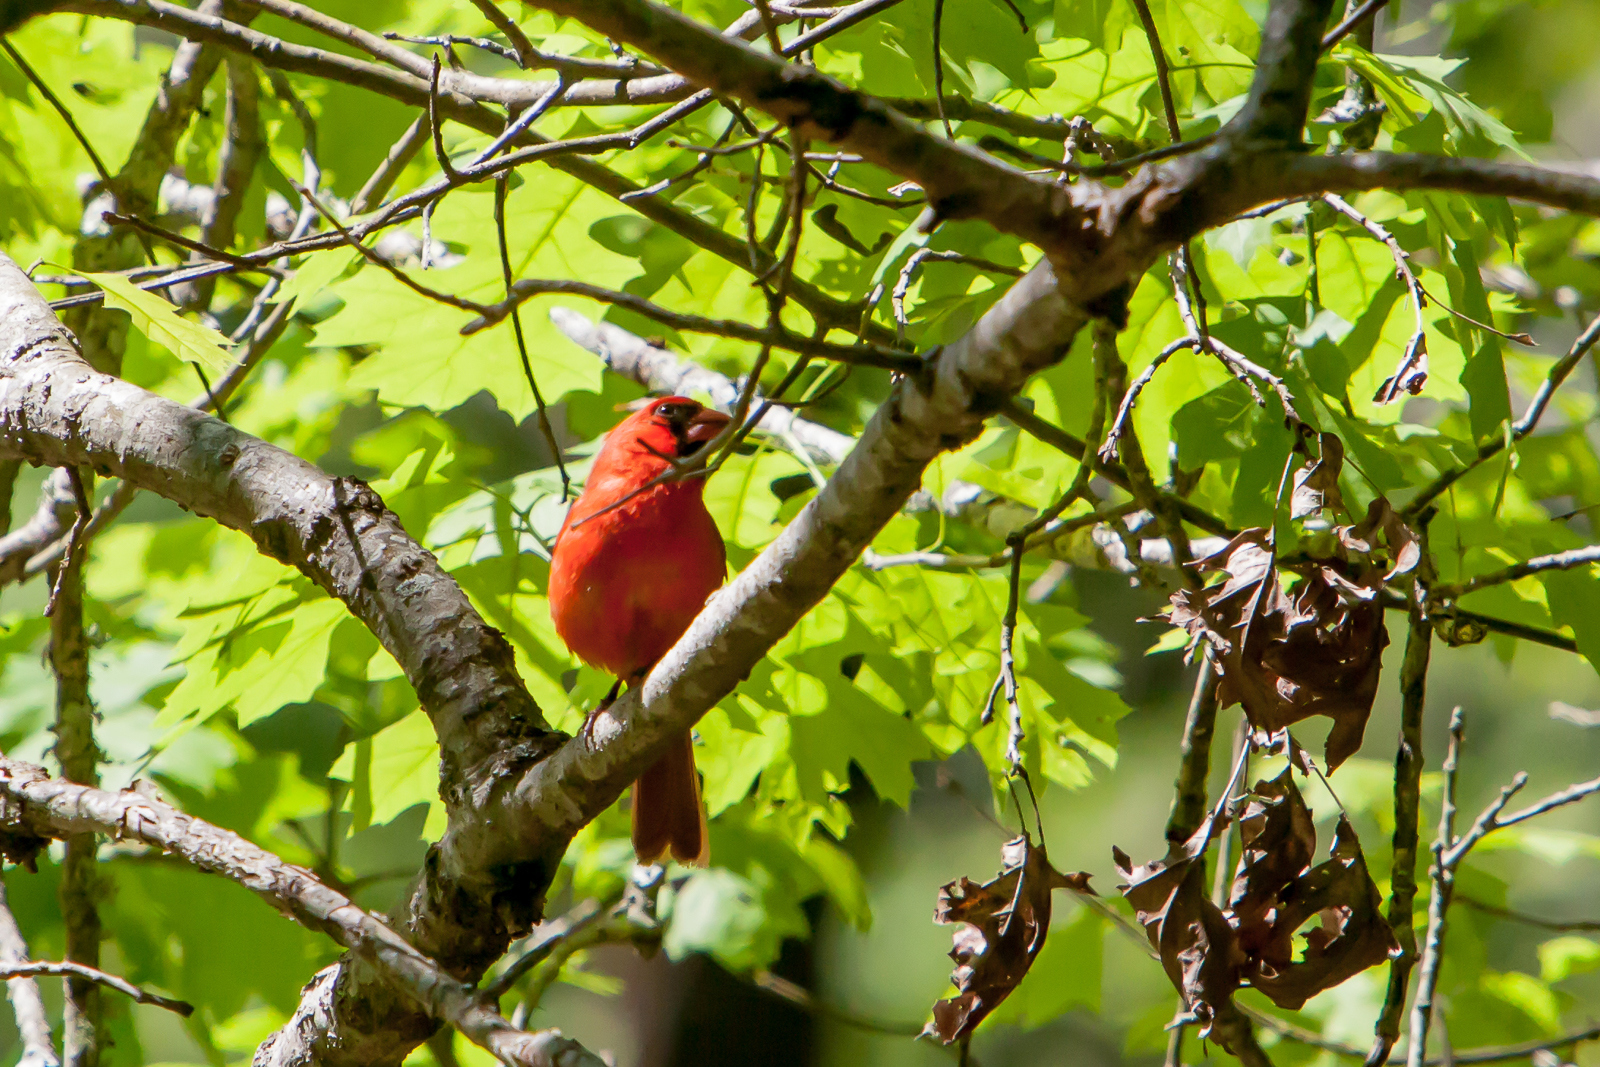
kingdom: Animalia
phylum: Chordata
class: Aves
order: Passeriformes
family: Cardinalidae
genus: Cardinalis
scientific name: Cardinalis cardinalis
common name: Northern cardinal
